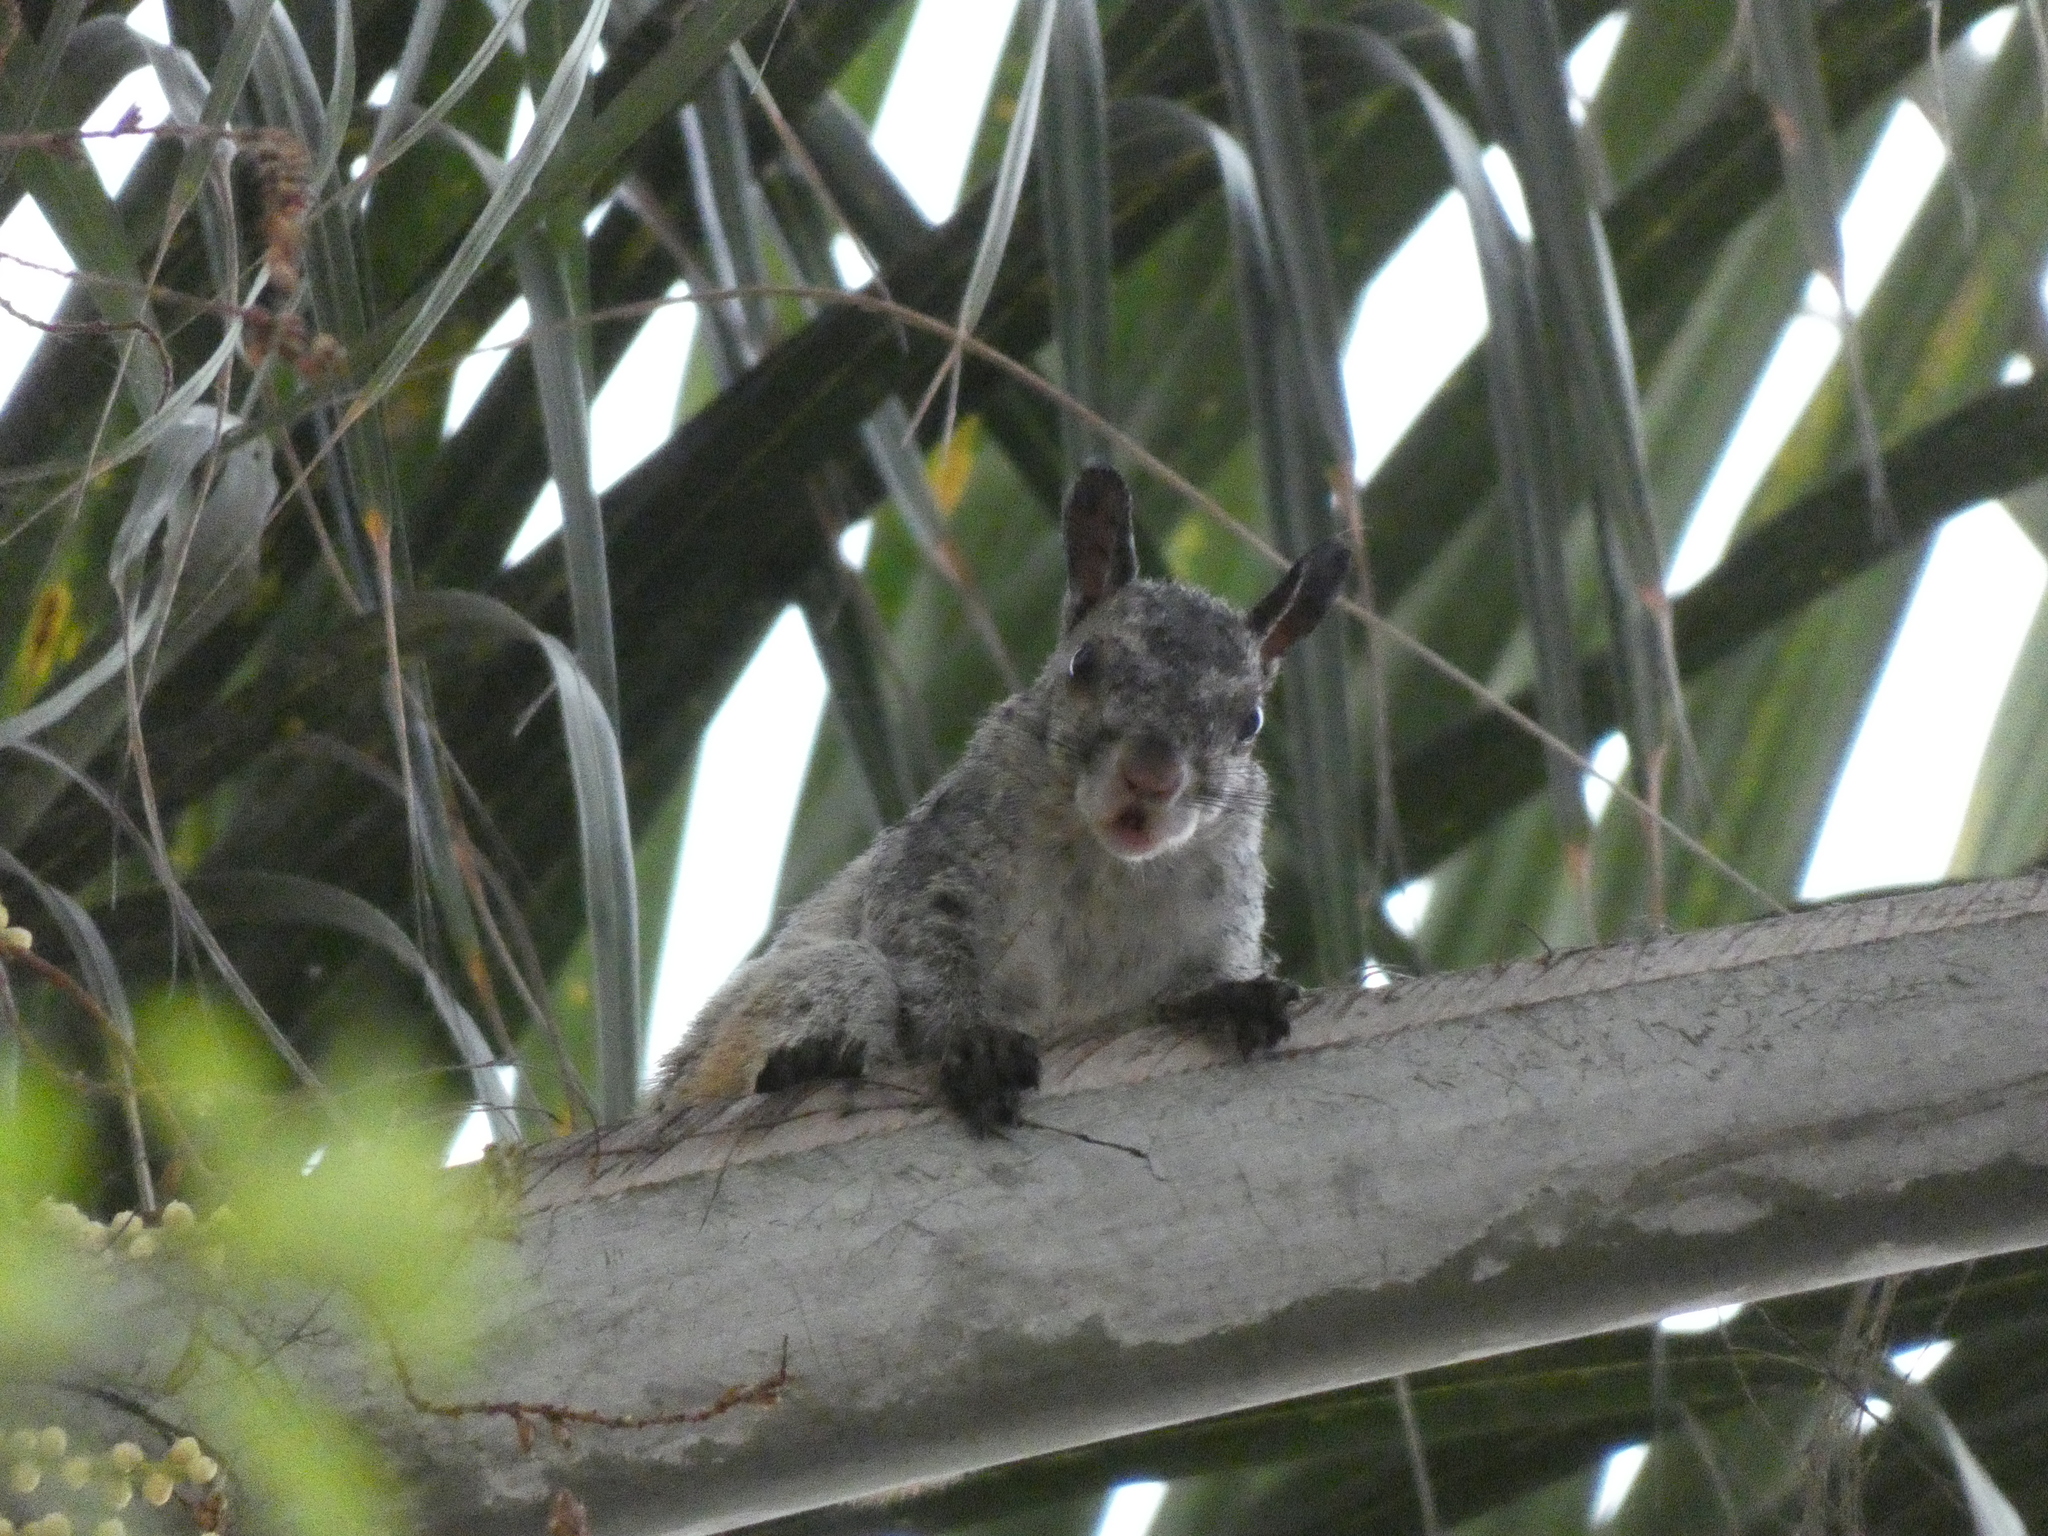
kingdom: Animalia
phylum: Chordata
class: Mammalia
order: Rodentia
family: Sciuridae
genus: Sciurus
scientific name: Sciurus stramineus
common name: Guayaquil squirrel
